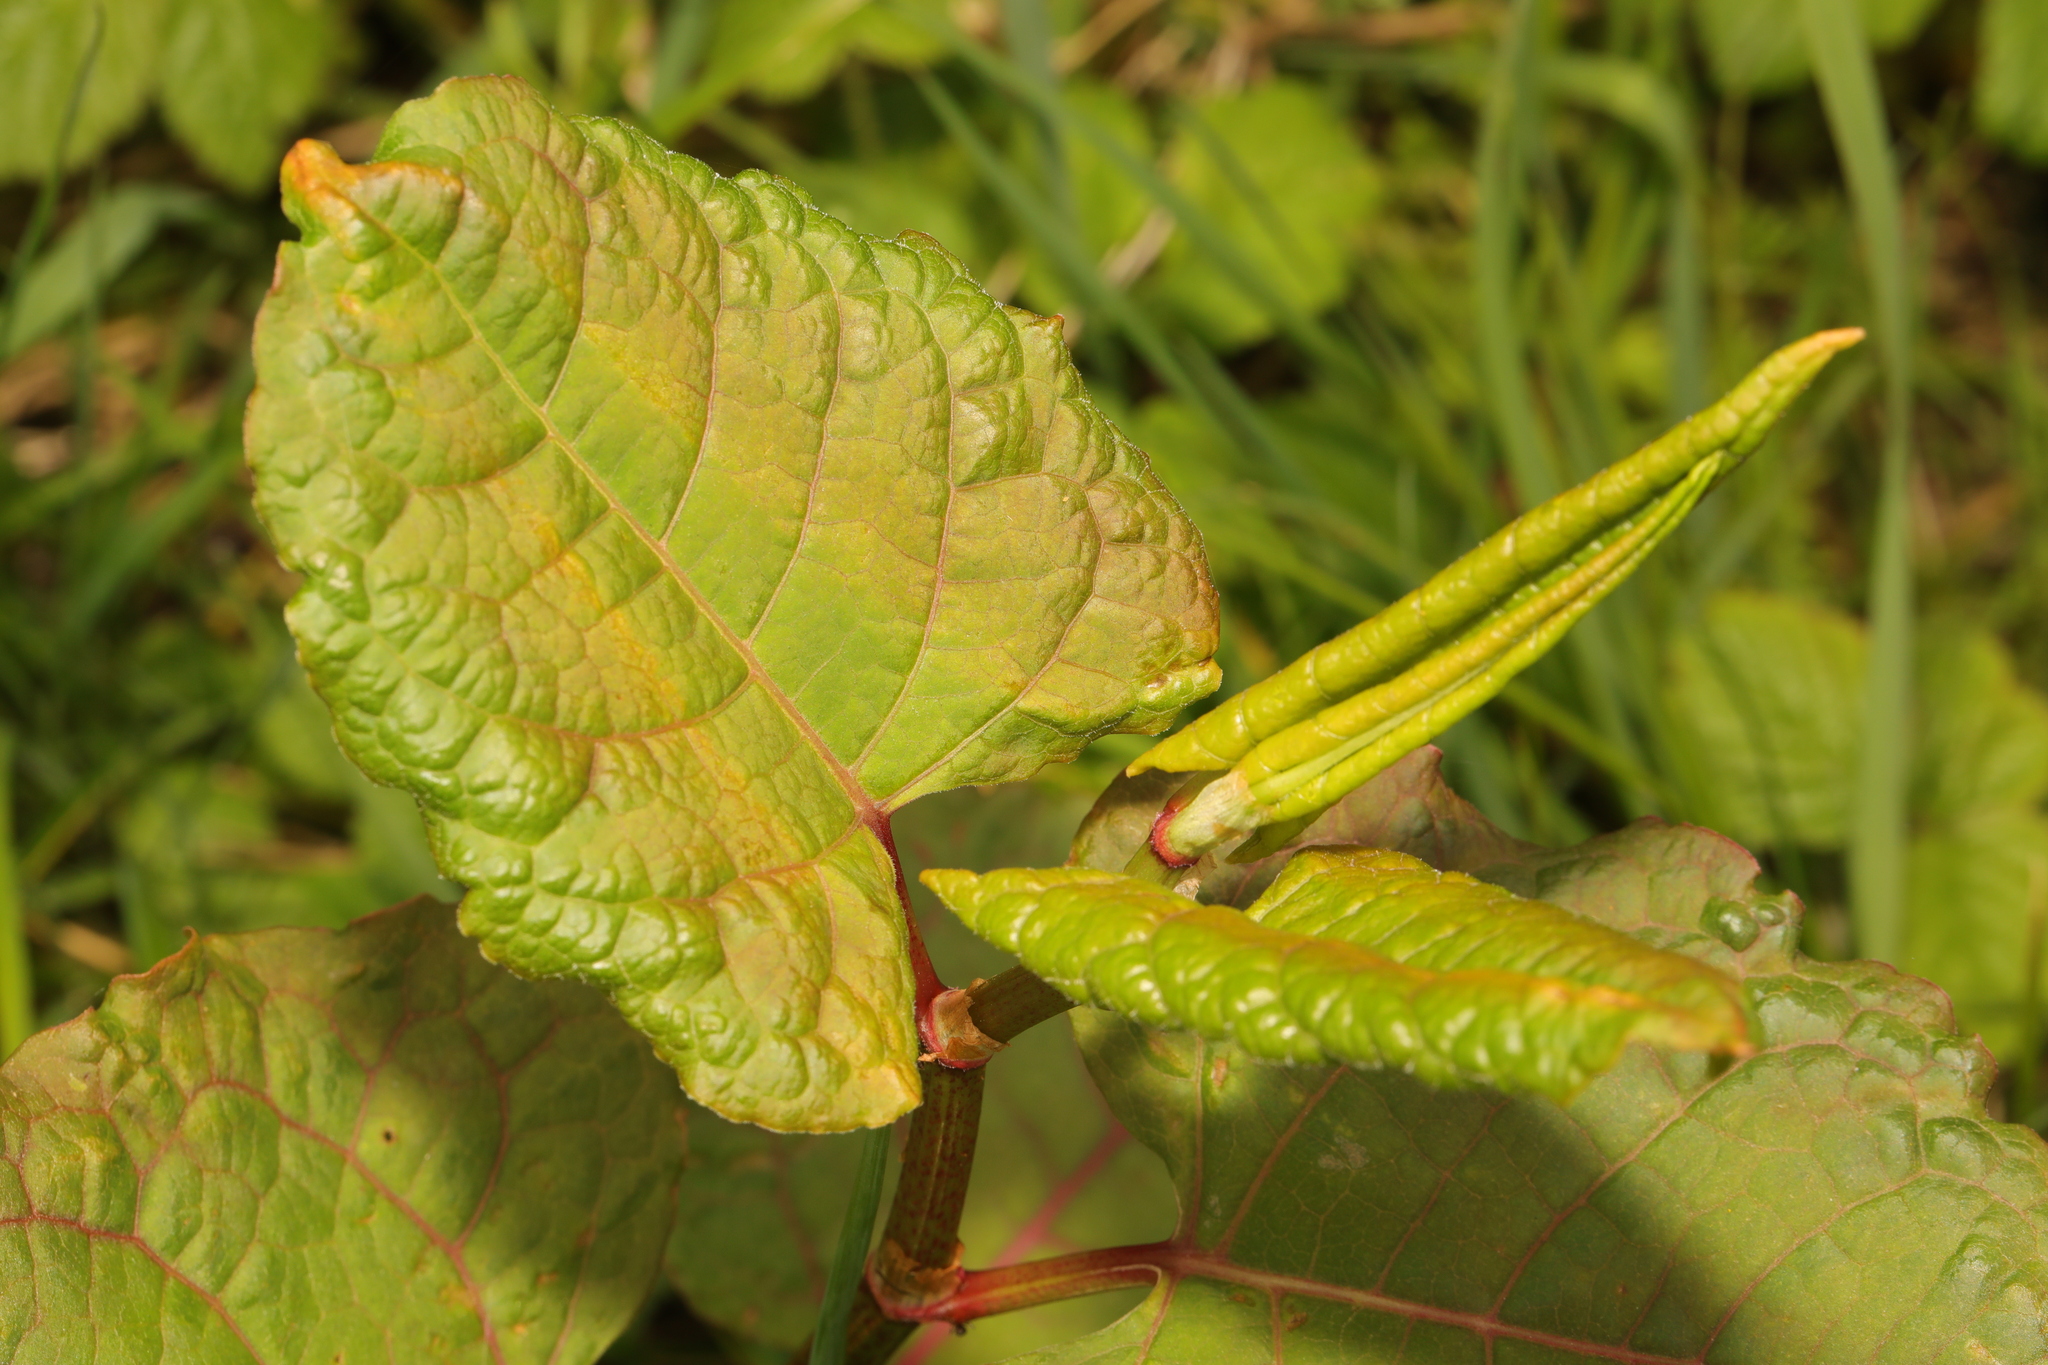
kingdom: Plantae
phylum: Tracheophyta
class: Magnoliopsida
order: Caryophyllales
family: Polygonaceae
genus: Reynoutria
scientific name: Reynoutria bohemica
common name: Bohemian knotweed
